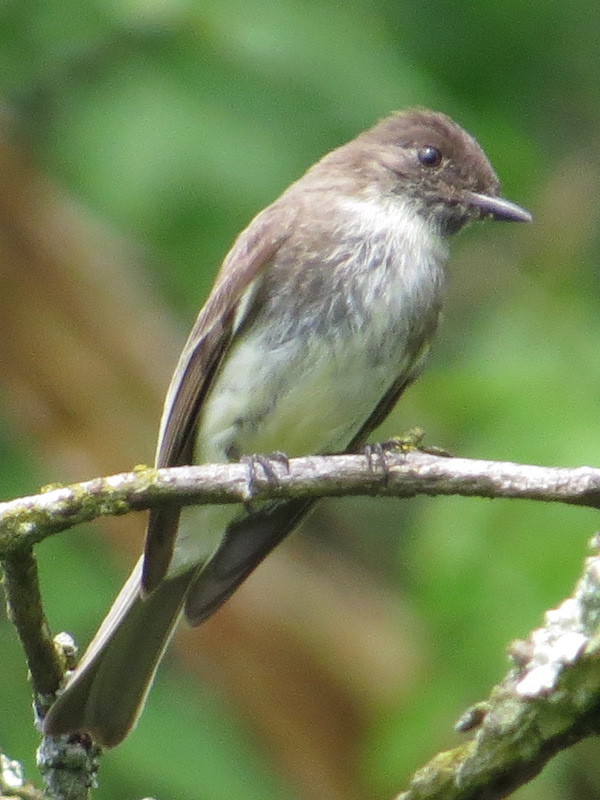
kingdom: Animalia
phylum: Chordata
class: Aves
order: Passeriformes
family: Tyrannidae
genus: Sayornis
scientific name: Sayornis phoebe
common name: Eastern phoebe
